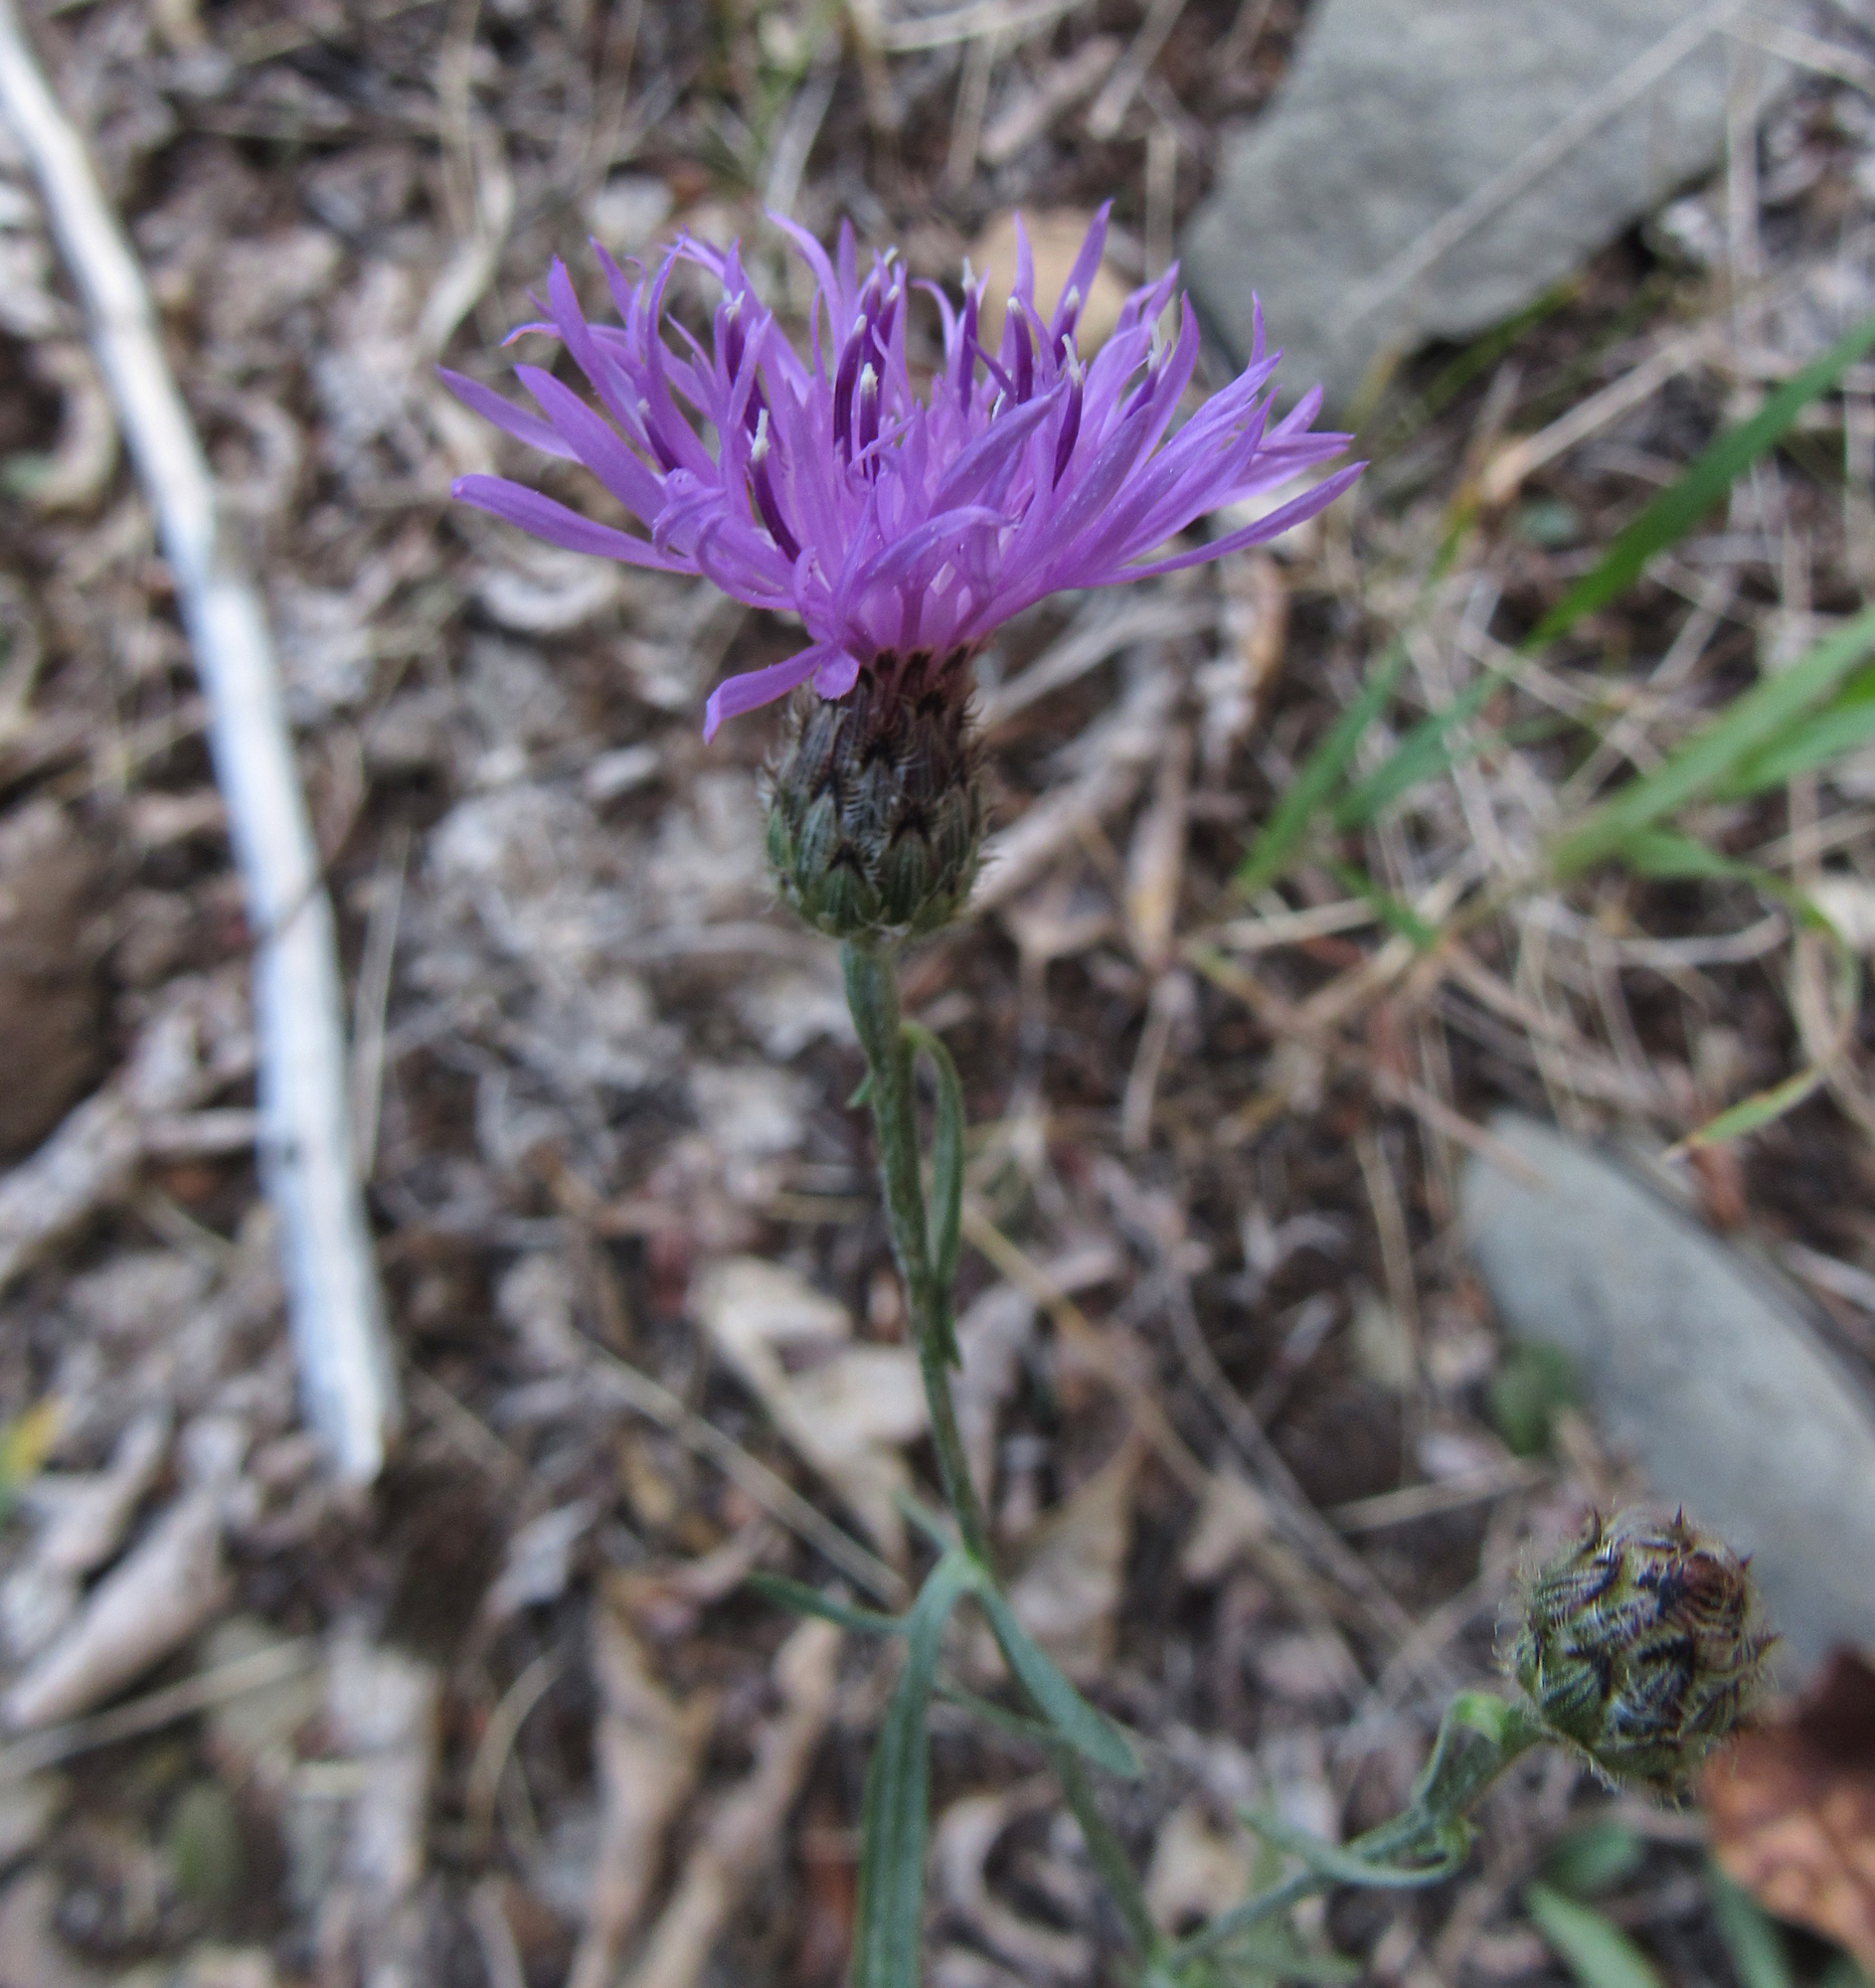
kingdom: Plantae
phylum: Tracheophyta
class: Magnoliopsida
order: Asterales
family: Asteraceae
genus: Centaurea
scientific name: Centaurea stoebe
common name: Spotted knapweed
